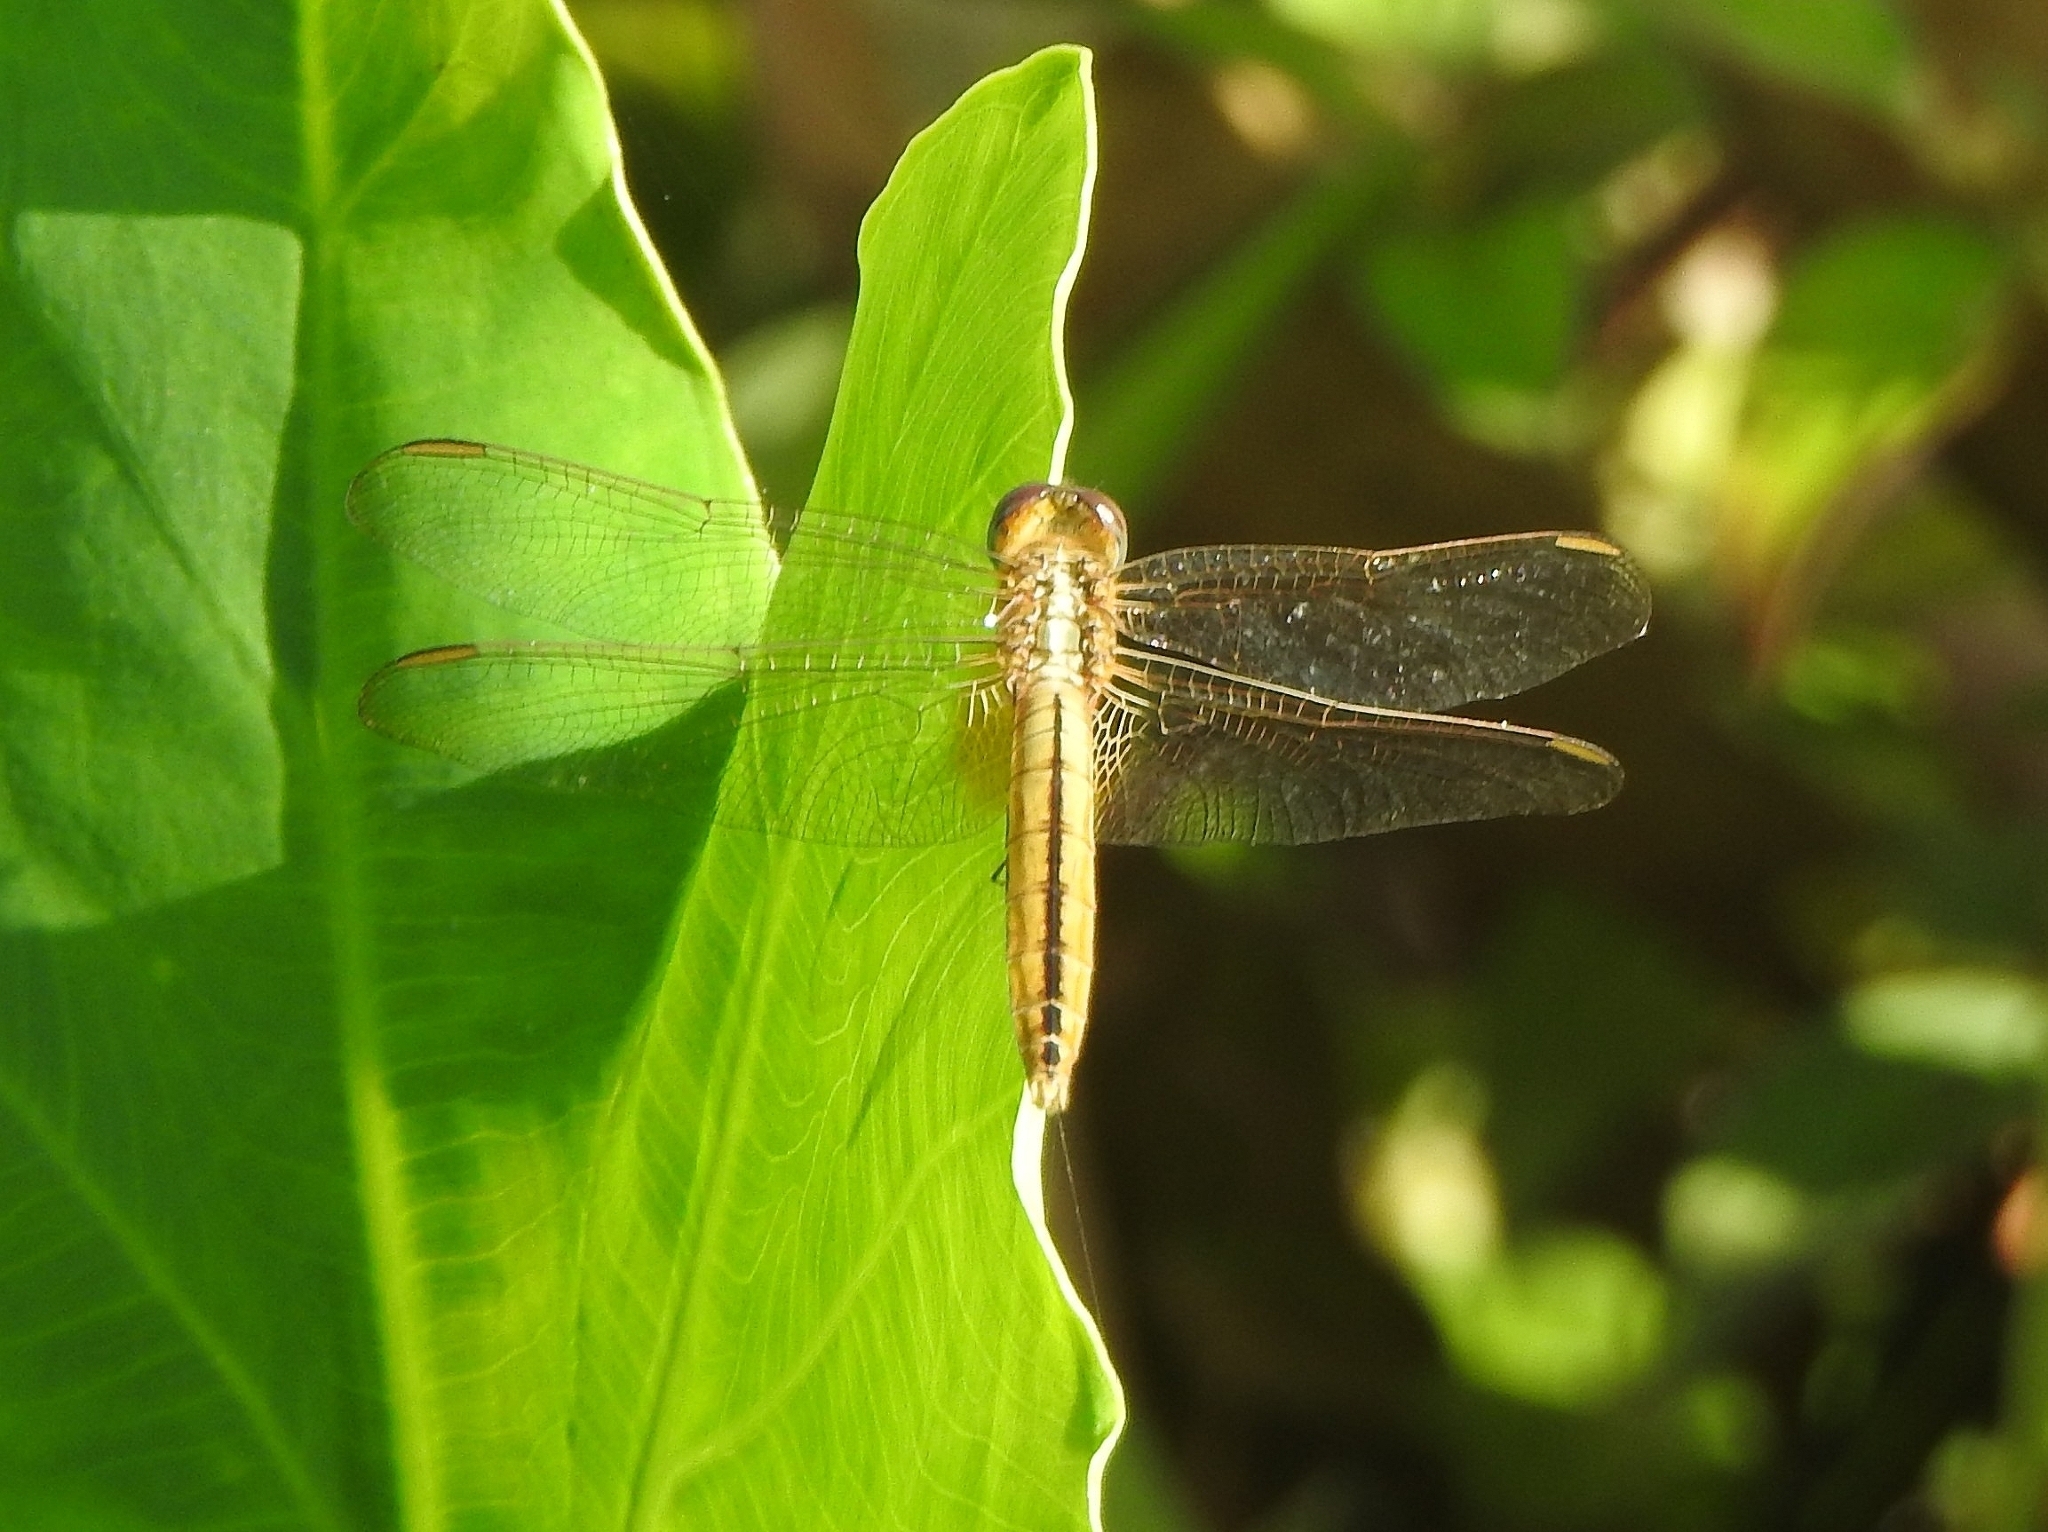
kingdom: Animalia
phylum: Arthropoda
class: Insecta
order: Odonata
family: Libellulidae
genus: Crocothemis
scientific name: Crocothemis servilia
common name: Scarlet skimmer
